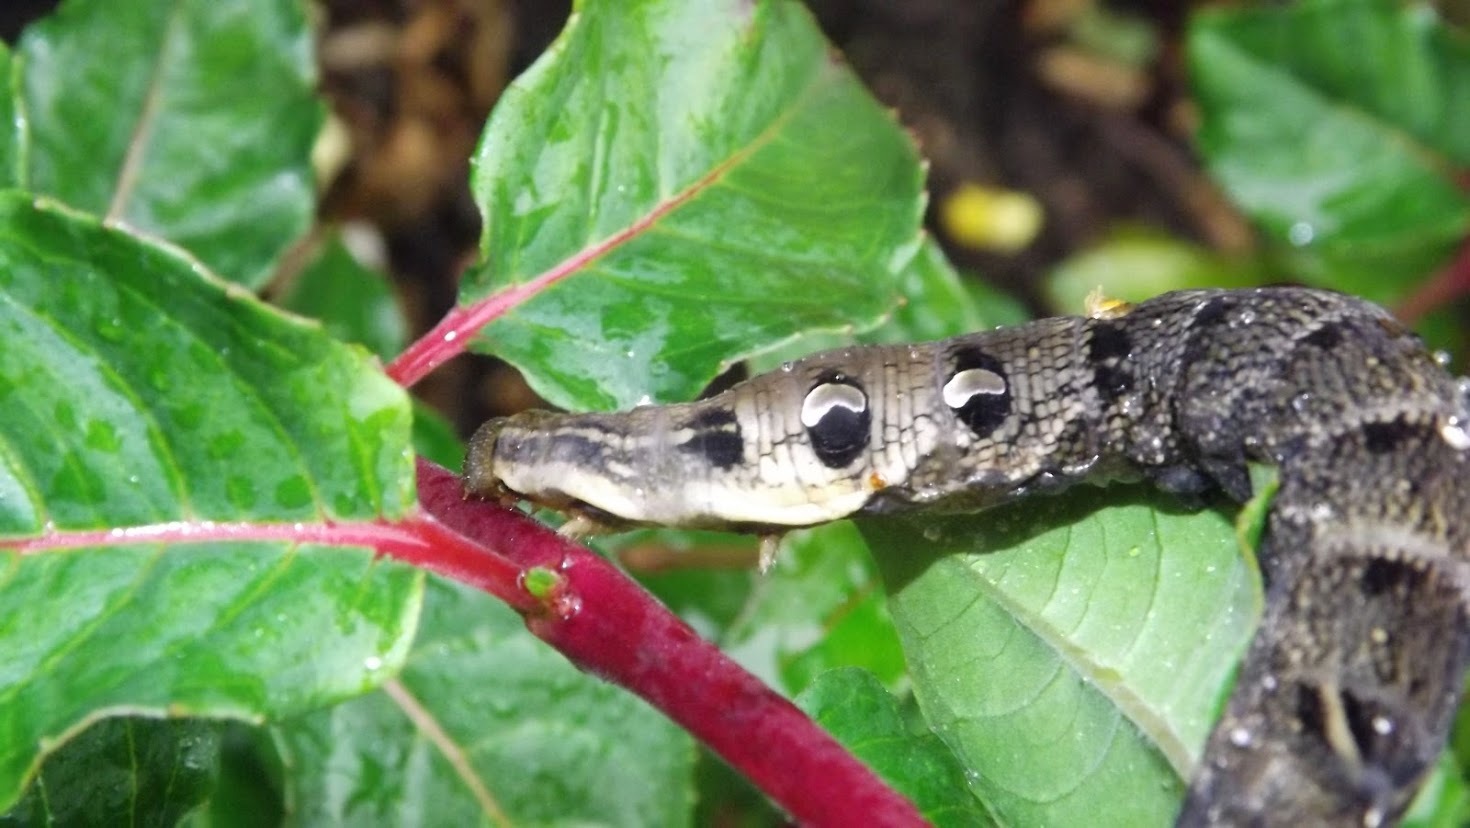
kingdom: Animalia
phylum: Arthropoda
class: Insecta
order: Lepidoptera
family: Sphingidae
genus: Deilephila
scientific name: Deilephila elpenor
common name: Elephant hawk-moth
